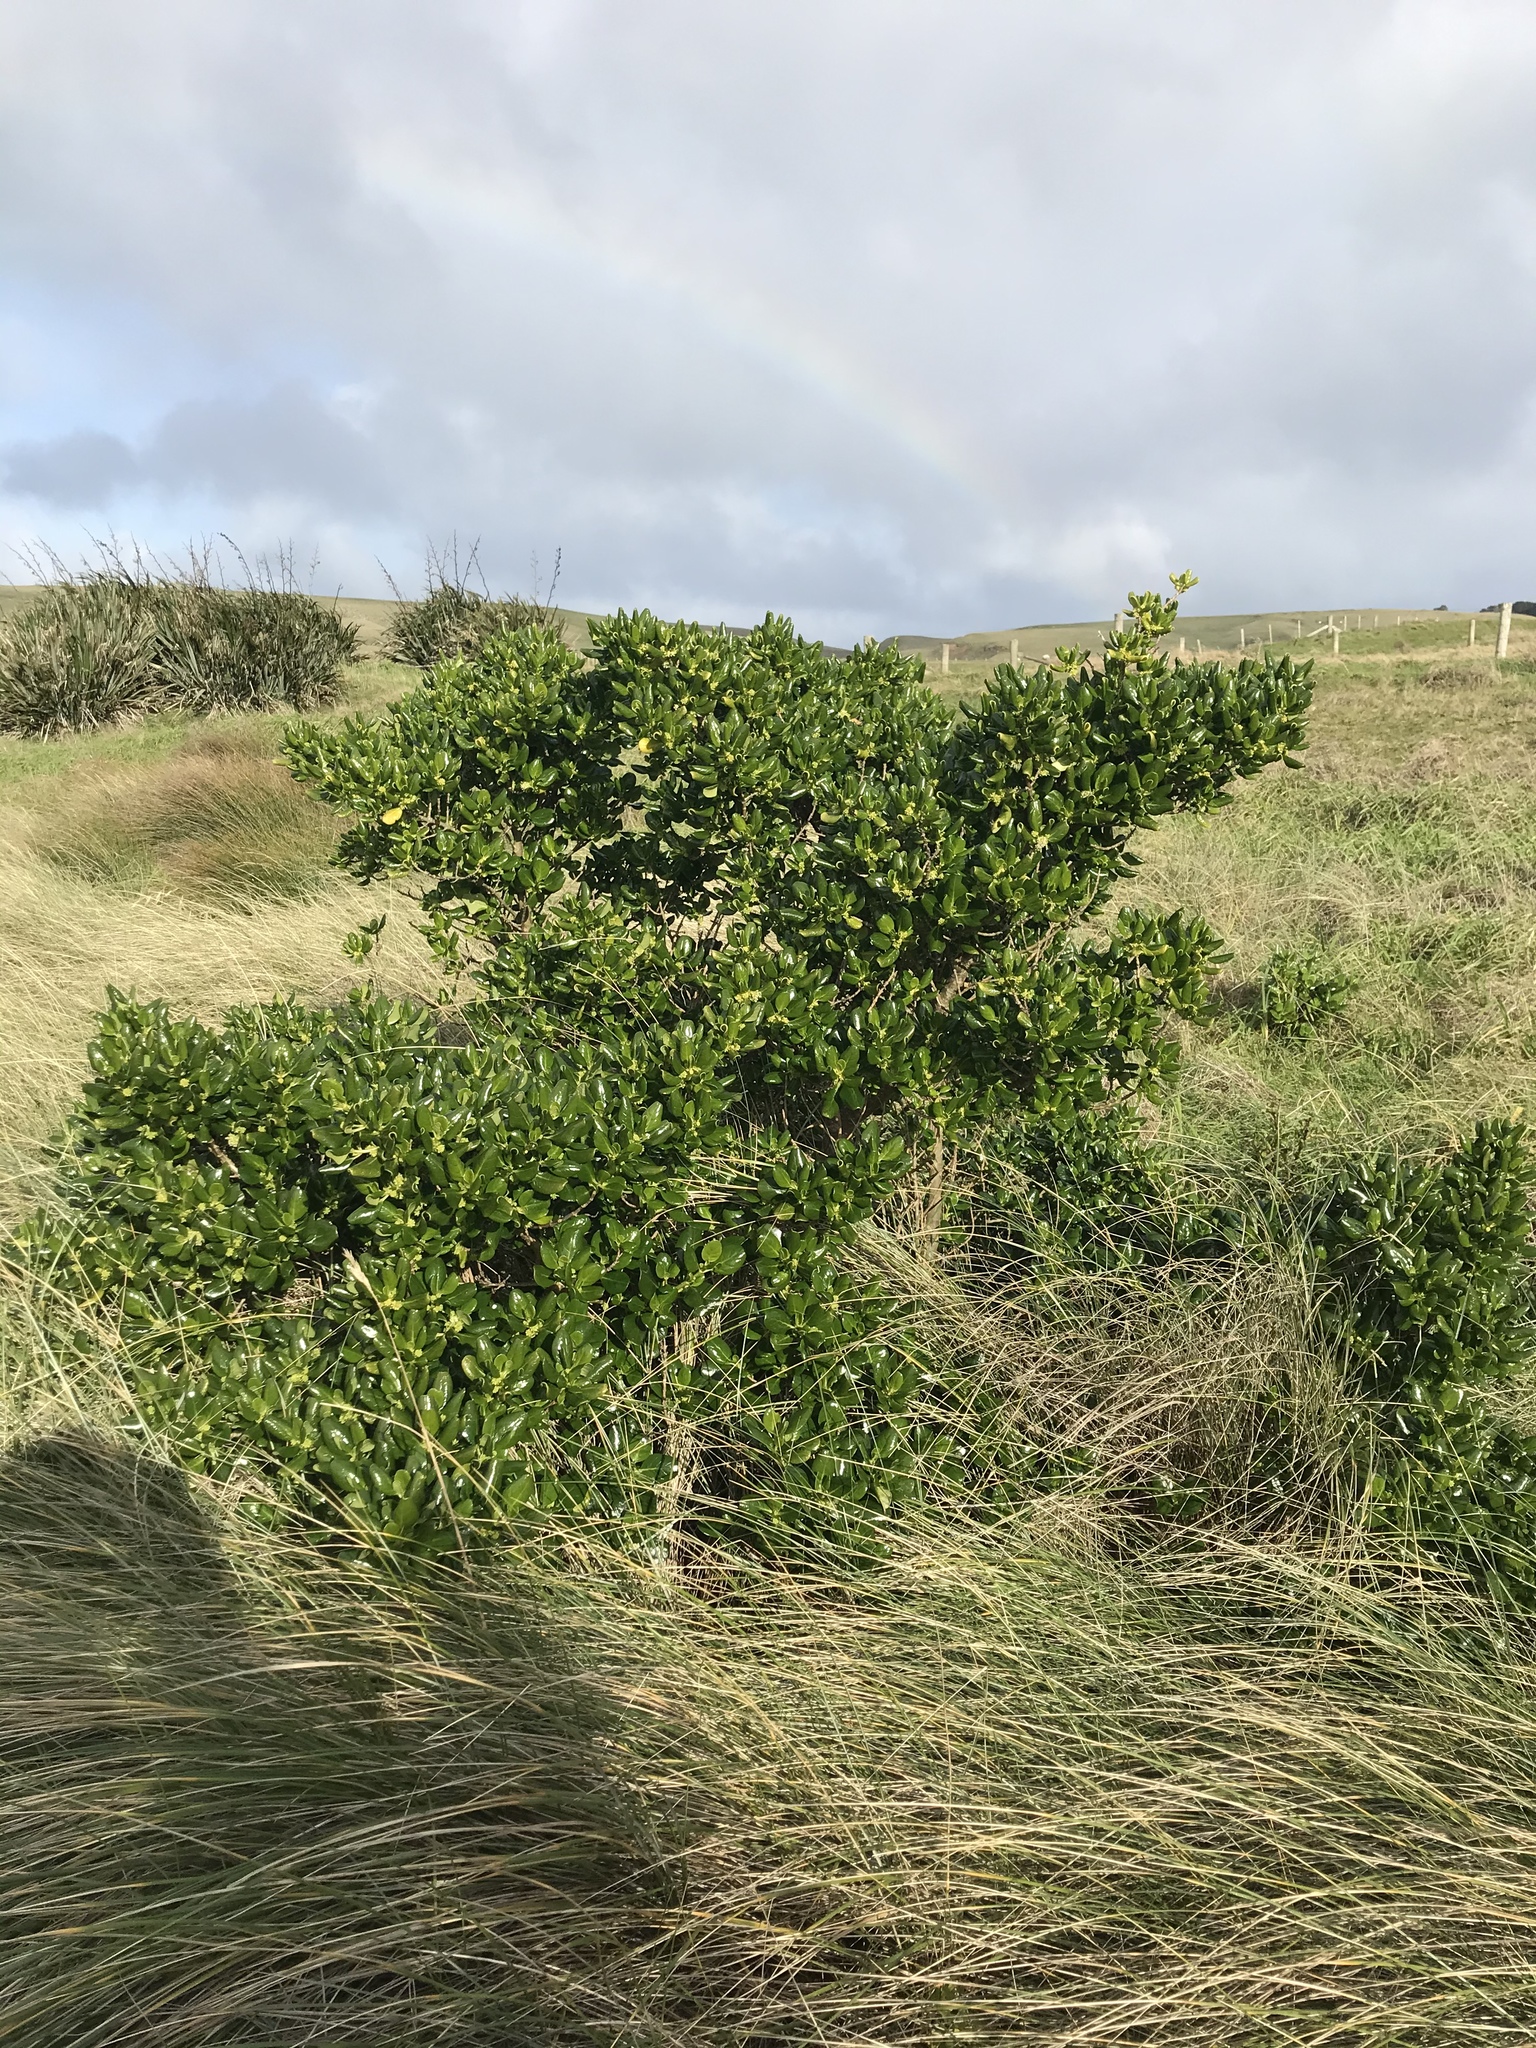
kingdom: Plantae
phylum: Tracheophyta
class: Magnoliopsida
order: Gentianales
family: Rubiaceae
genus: Coprosma
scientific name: Coprosma repens
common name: Tree bedstraw
